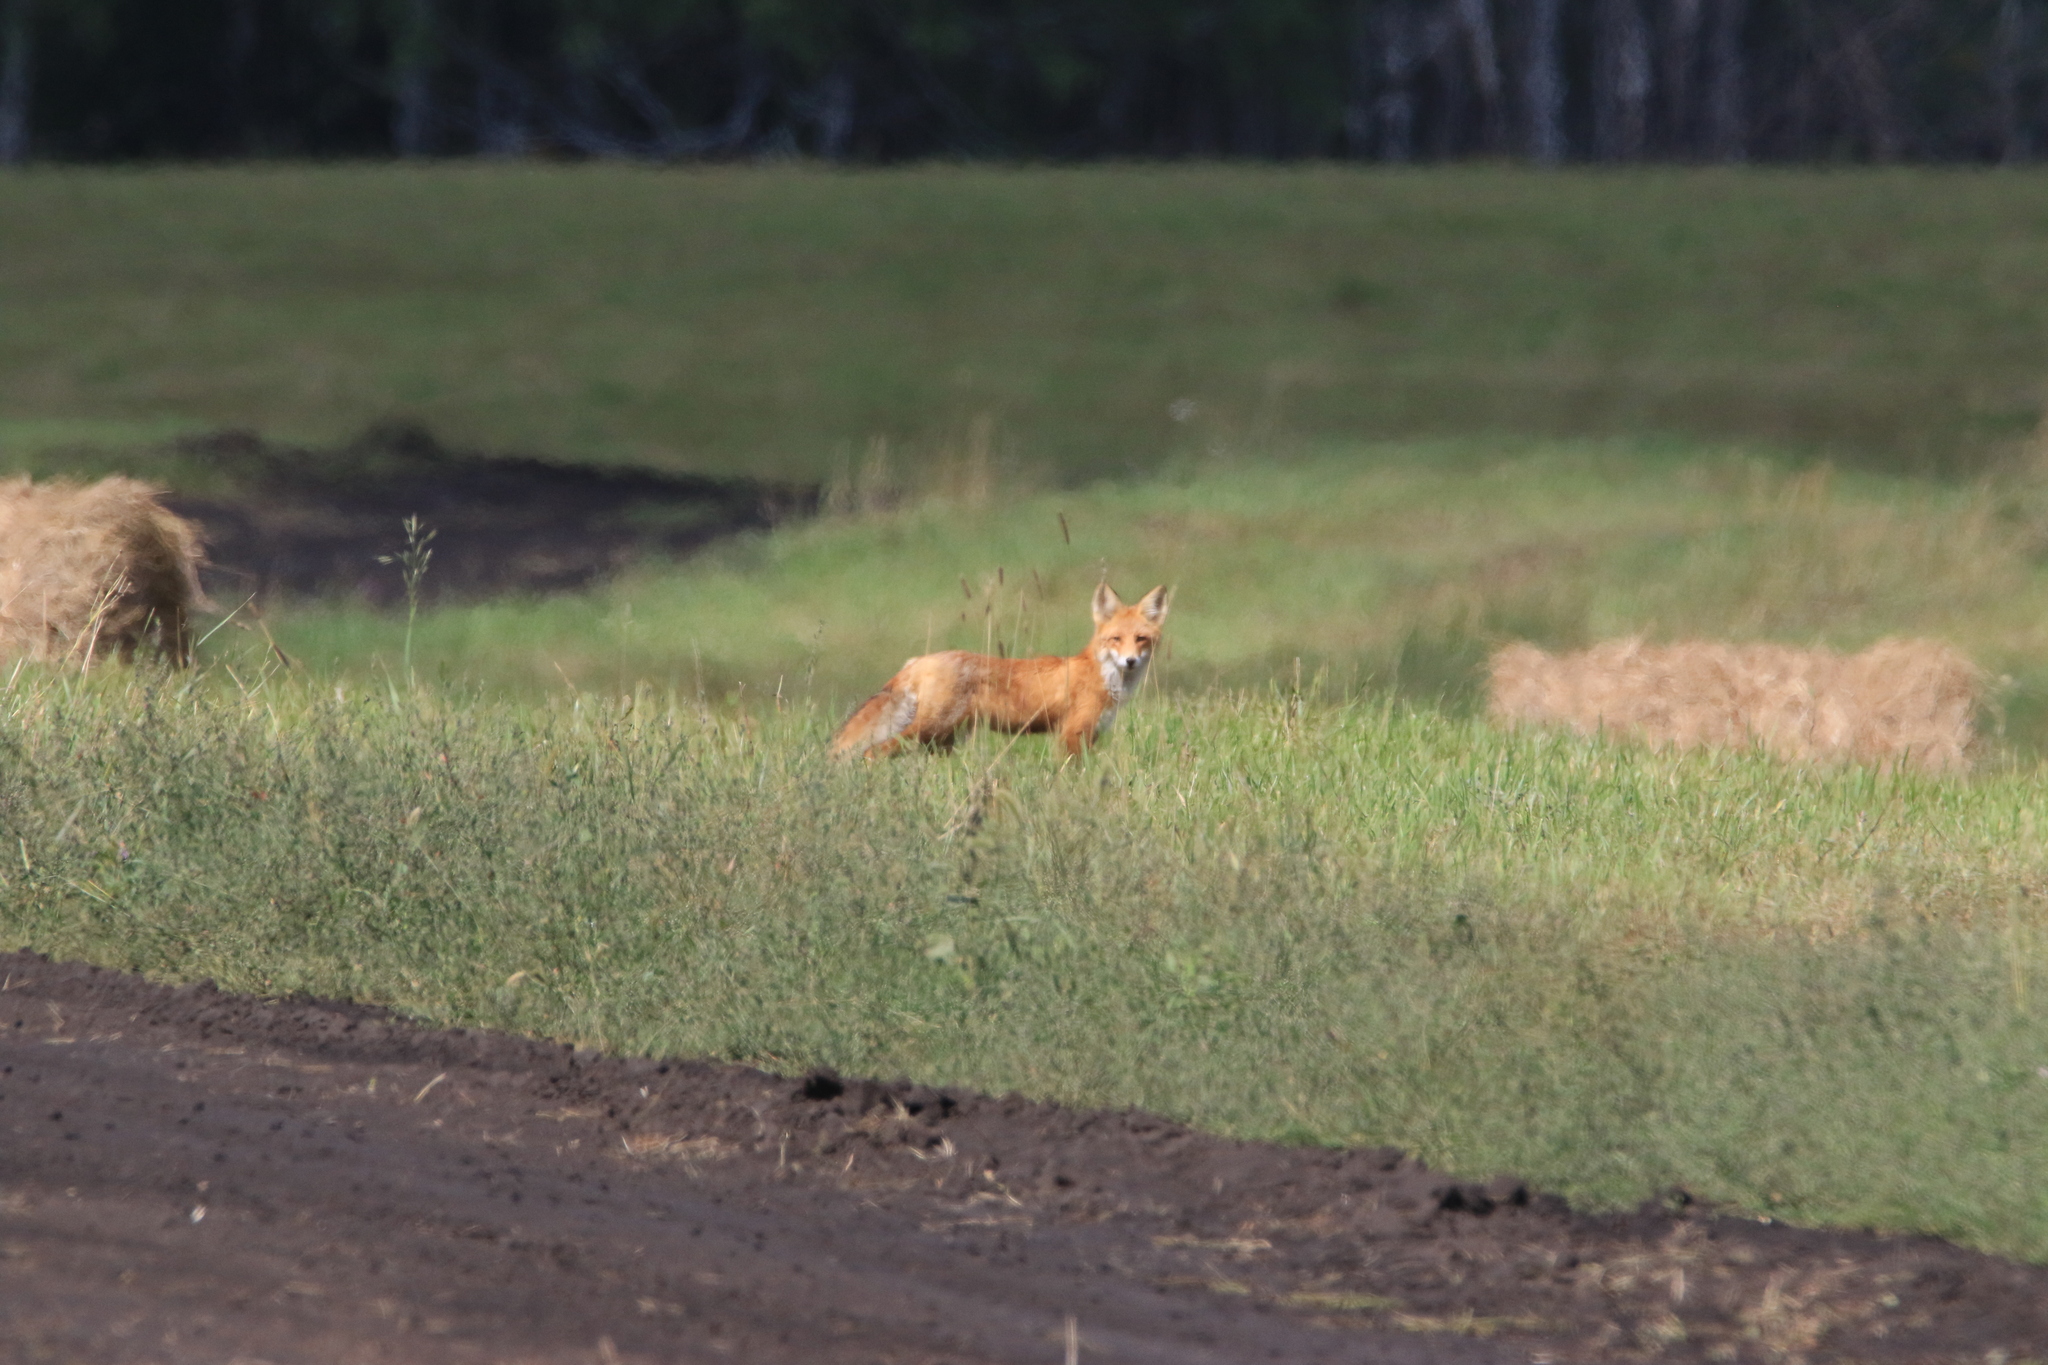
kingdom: Animalia
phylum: Chordata
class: Mammalia
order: Carnivora
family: Canidae
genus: Vulpes
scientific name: Vulpes vulpes
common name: Red fox
